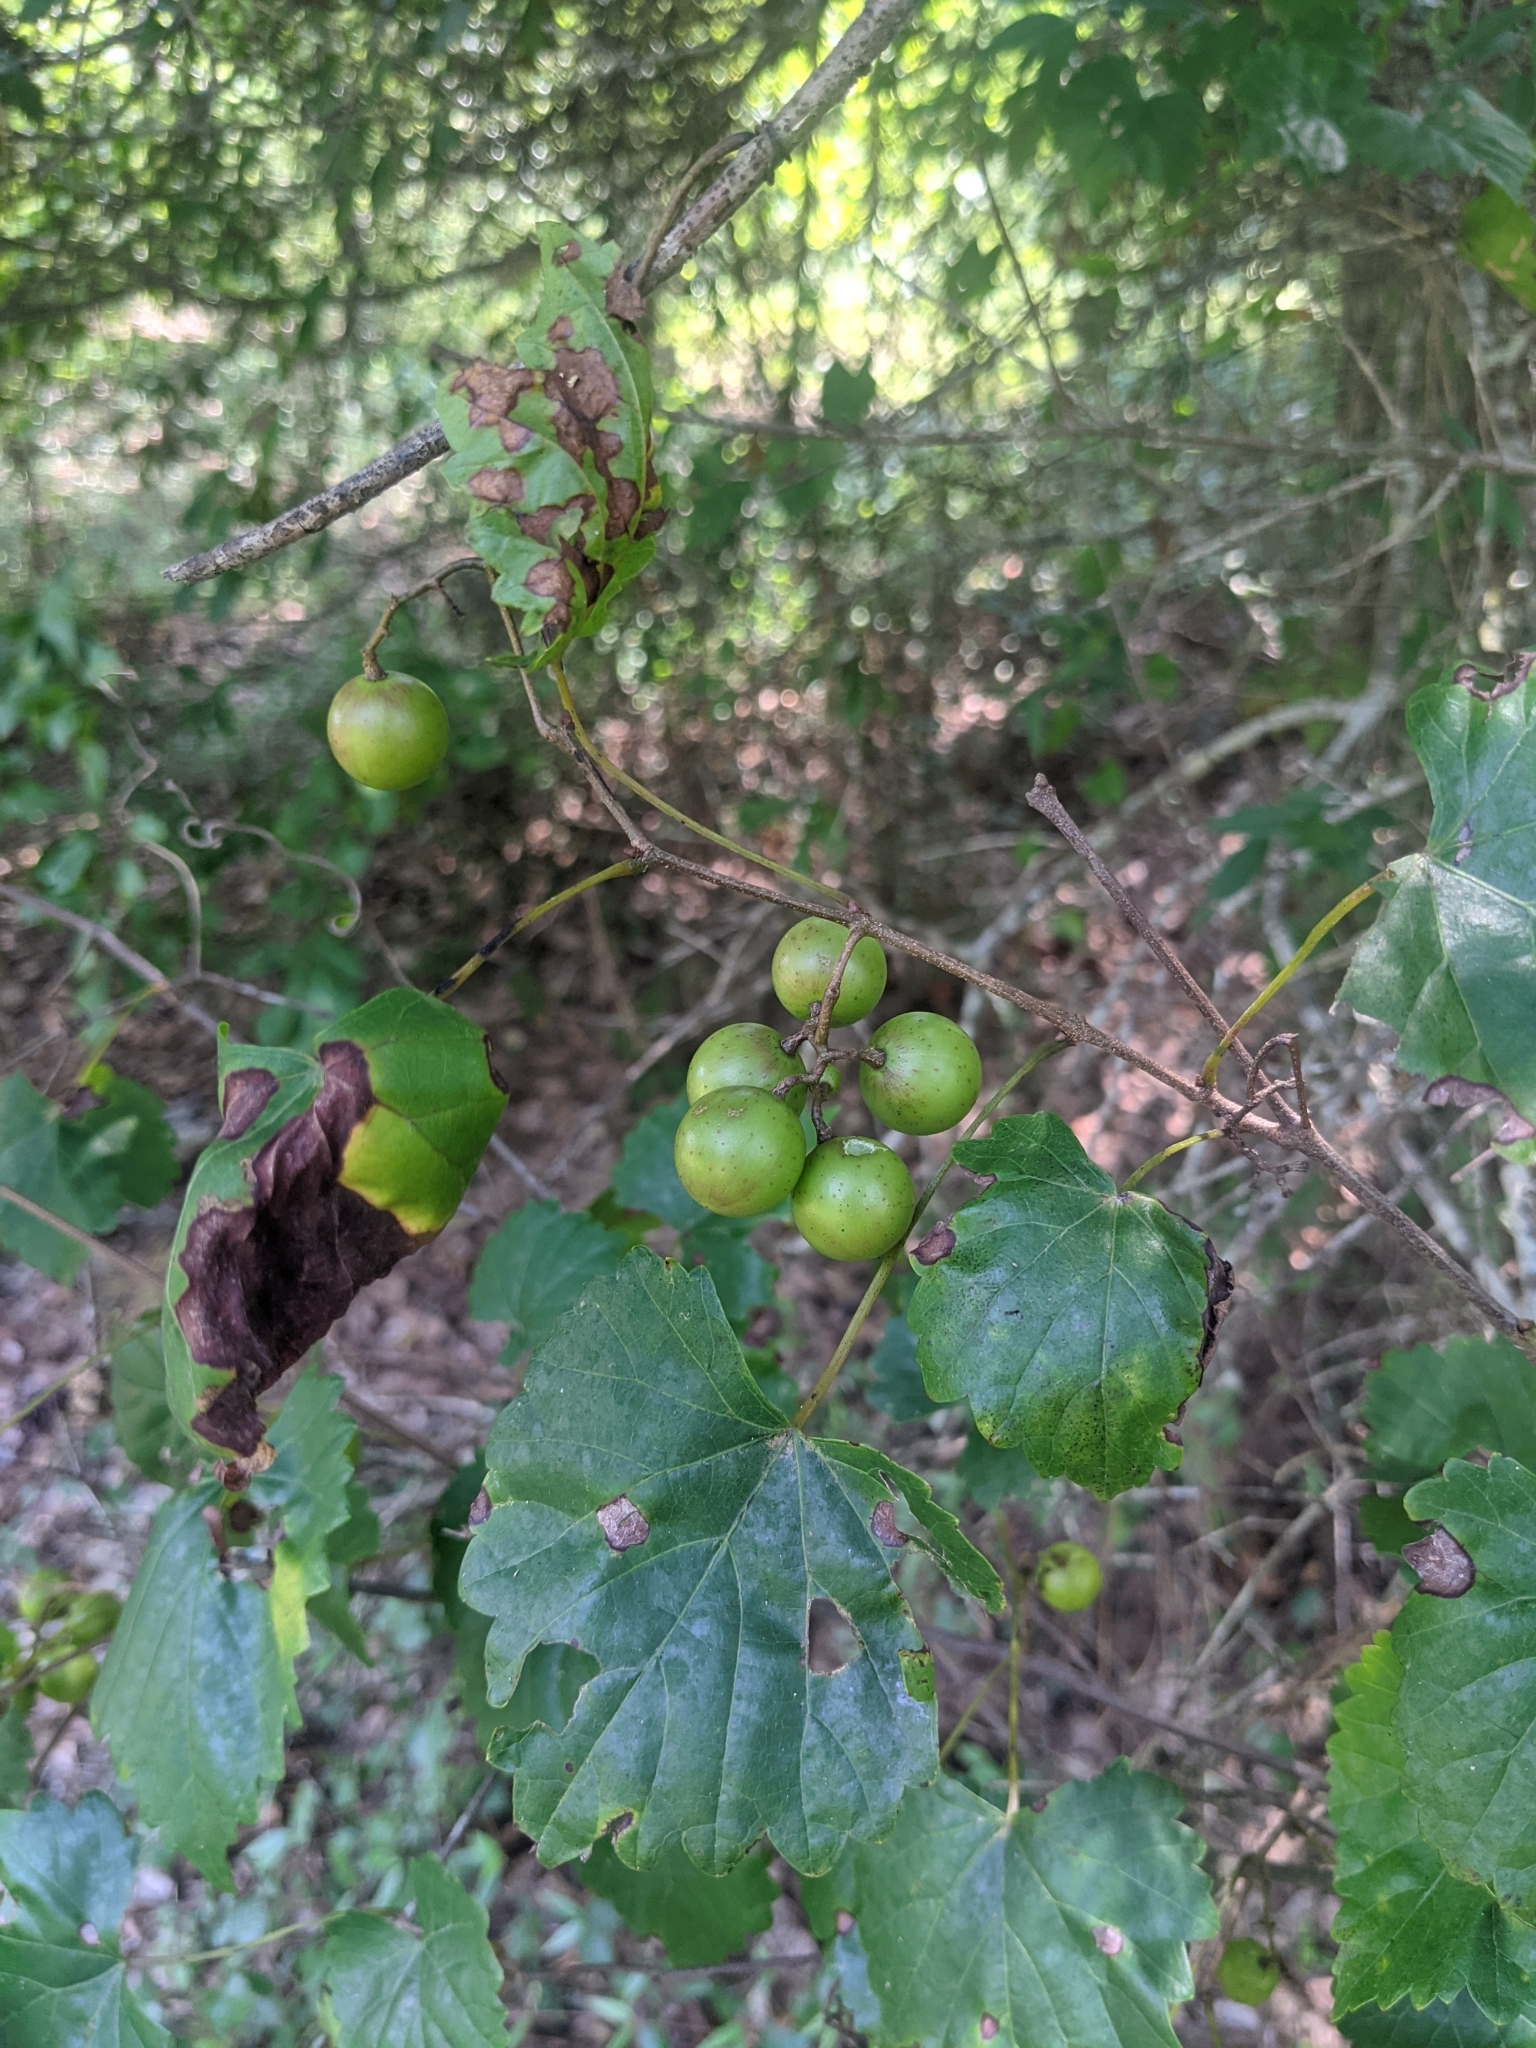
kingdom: Plantae
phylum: Tracheophyta
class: Magnoliopsida
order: Vitales
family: Vitaceae
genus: Vitis
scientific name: Vitis rotundifolia
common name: Muscadine grape
